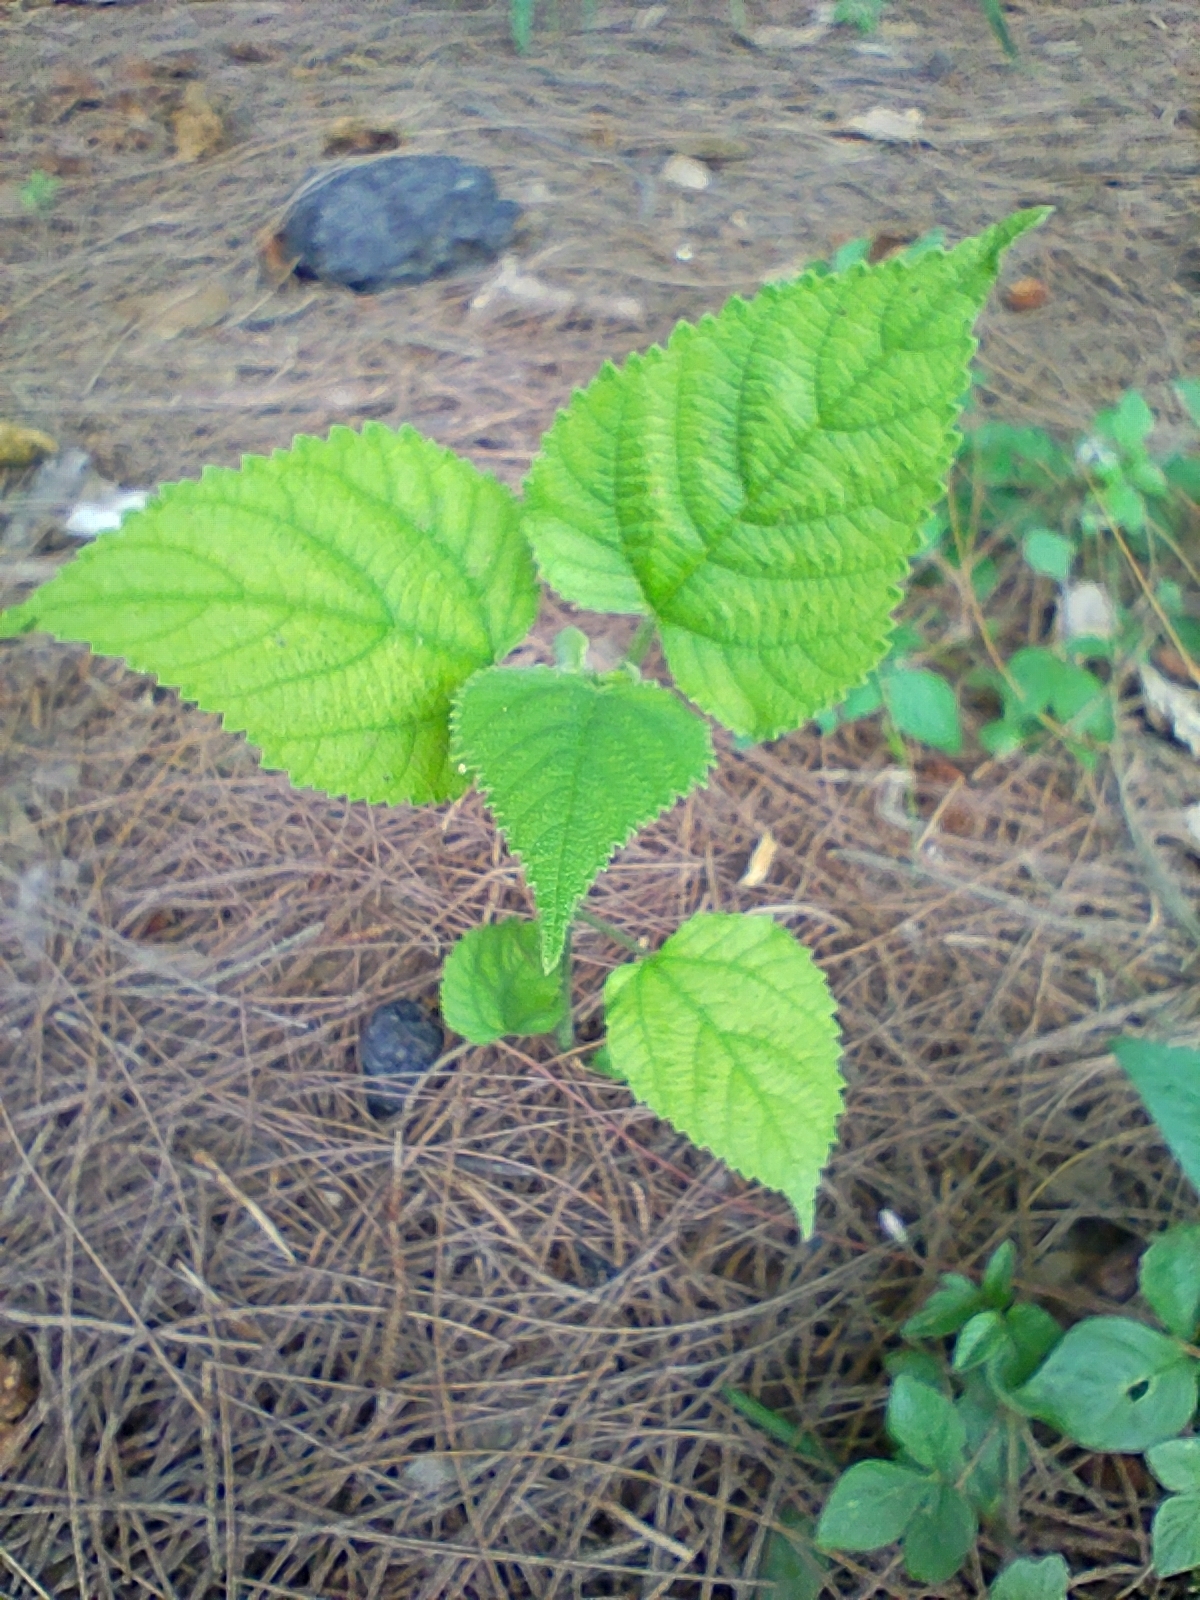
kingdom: Plantae
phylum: Tracheophyta
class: Magnoliopsida
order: Rosales
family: Moraceae
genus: Broussonetia
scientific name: Broussonetia papyrifera
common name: Paper mulberry
